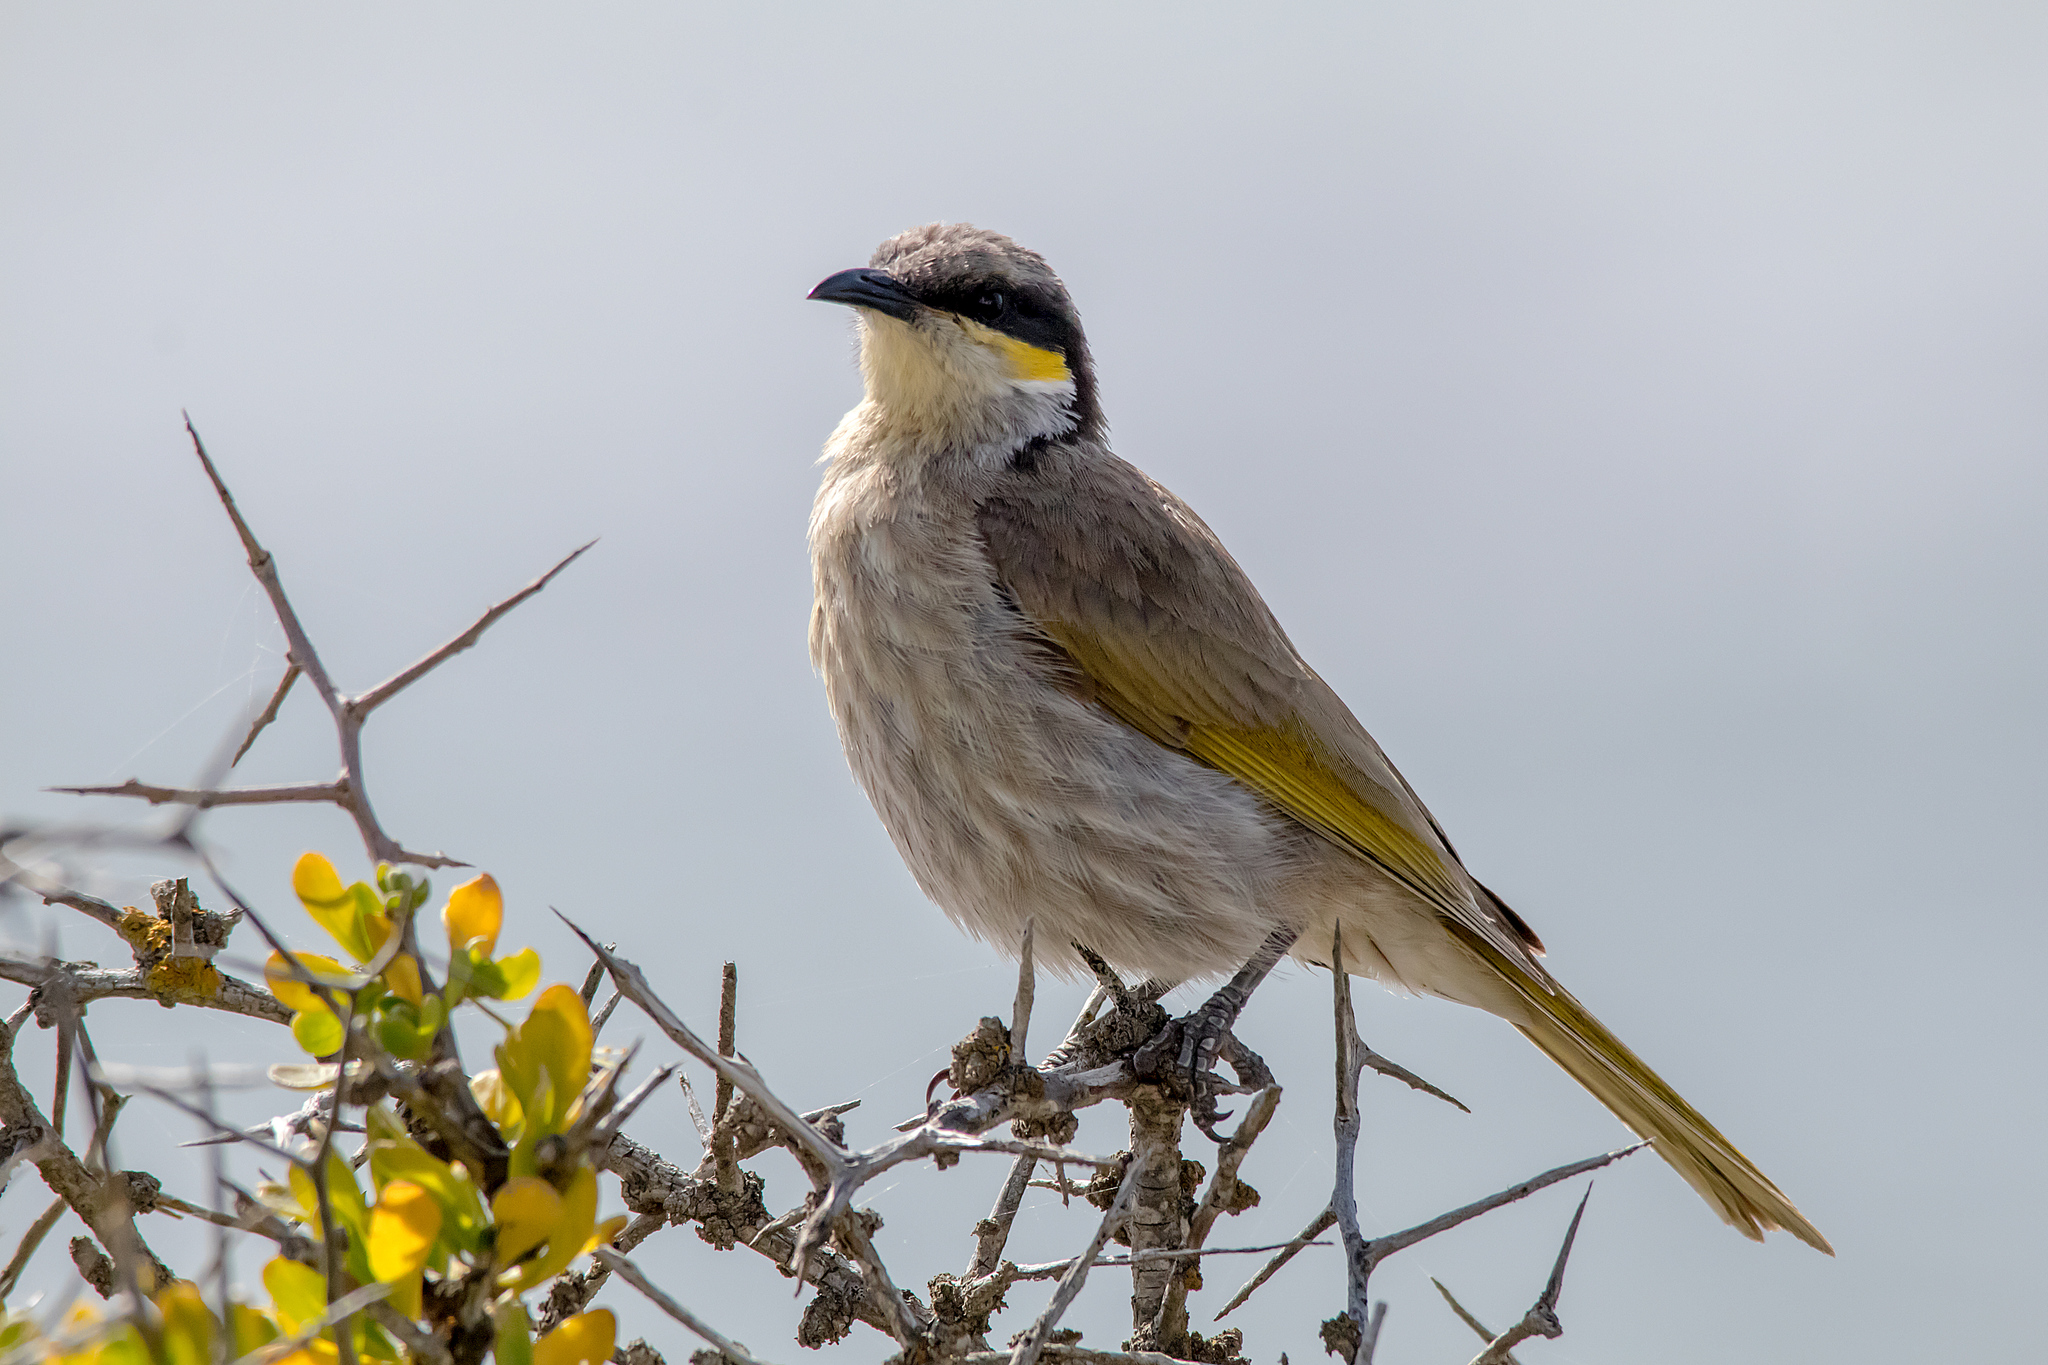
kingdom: Animalia
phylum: Chordata
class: Aves
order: Passeriformes
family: Meliphagidae
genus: Gavicalis
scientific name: Gavicalis virescens
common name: Singing honeyeater
